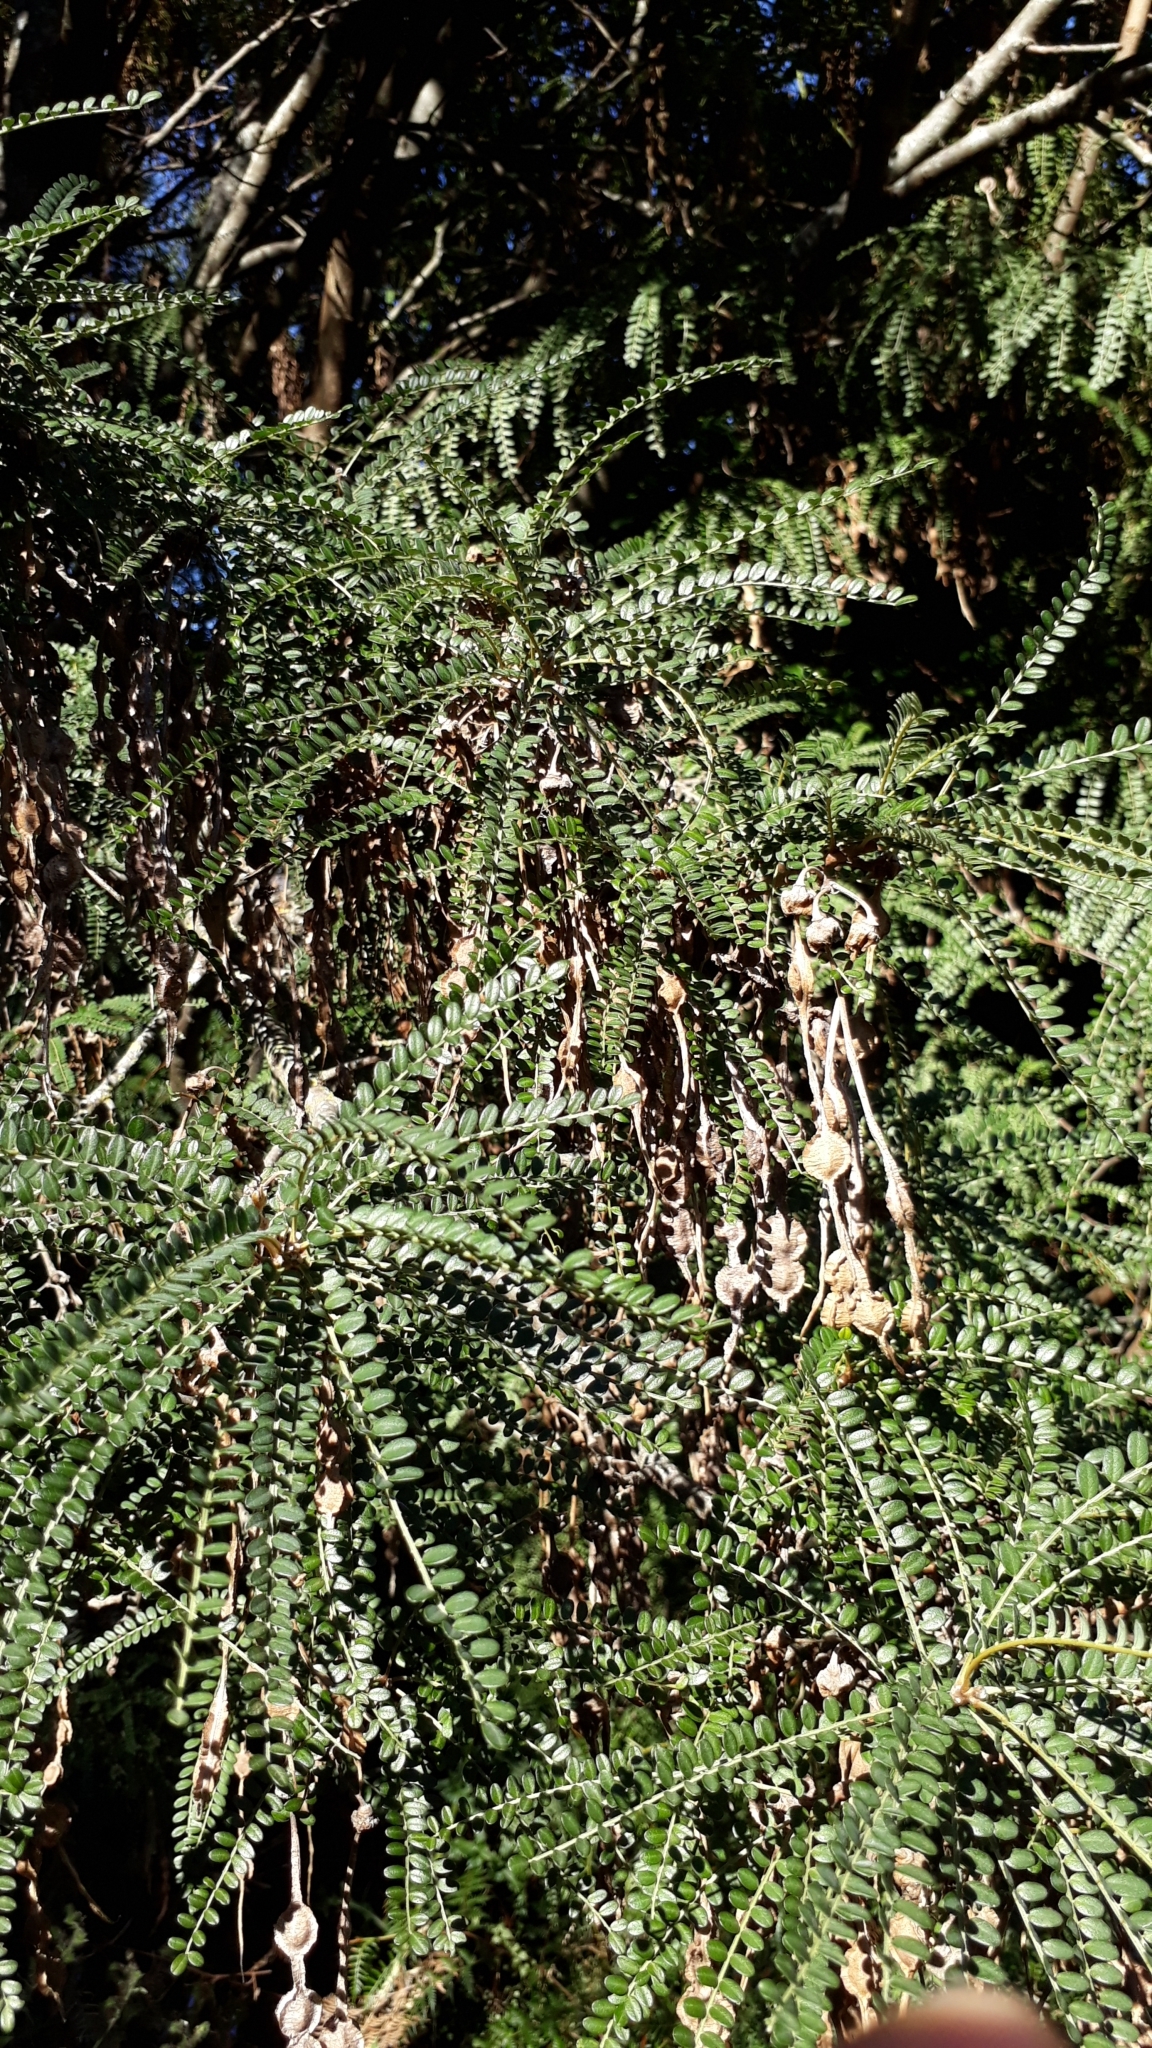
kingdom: Plantae
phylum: Tracheophyta
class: Magnoliopsida
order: Fabales
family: Fabaceae
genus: Sophora
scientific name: Sophora microphylla
